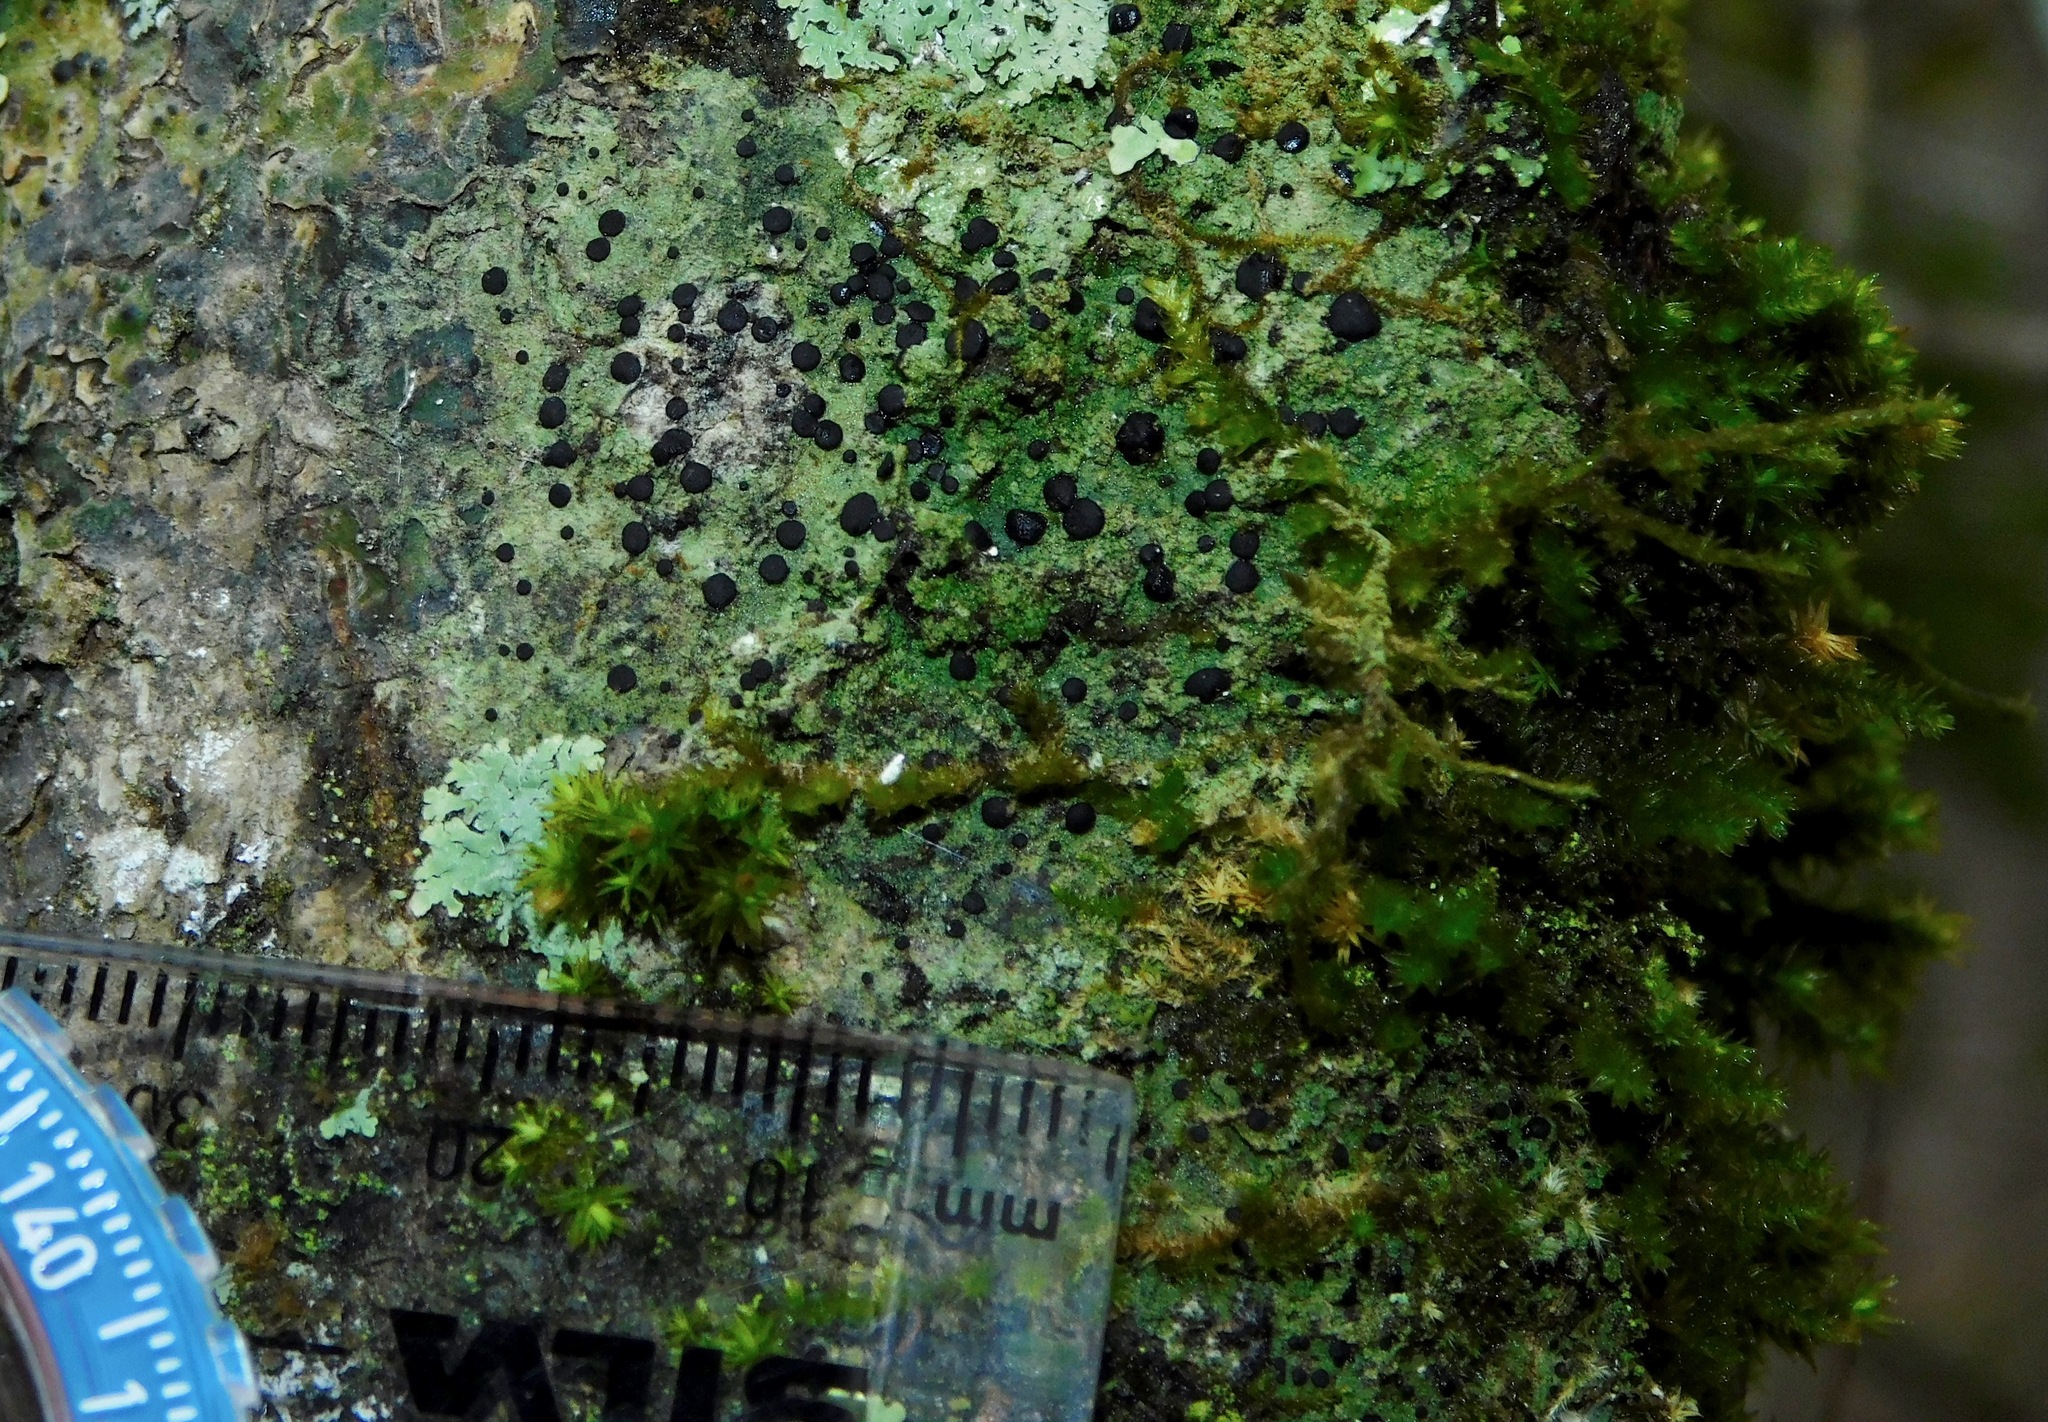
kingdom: Fungi
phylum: Ascomycota
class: Lecanoromycetes
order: Lecanorales
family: Ramalinaceae
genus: Bacidia
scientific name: Bacidia schweinitzii
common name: Surprise lichen
